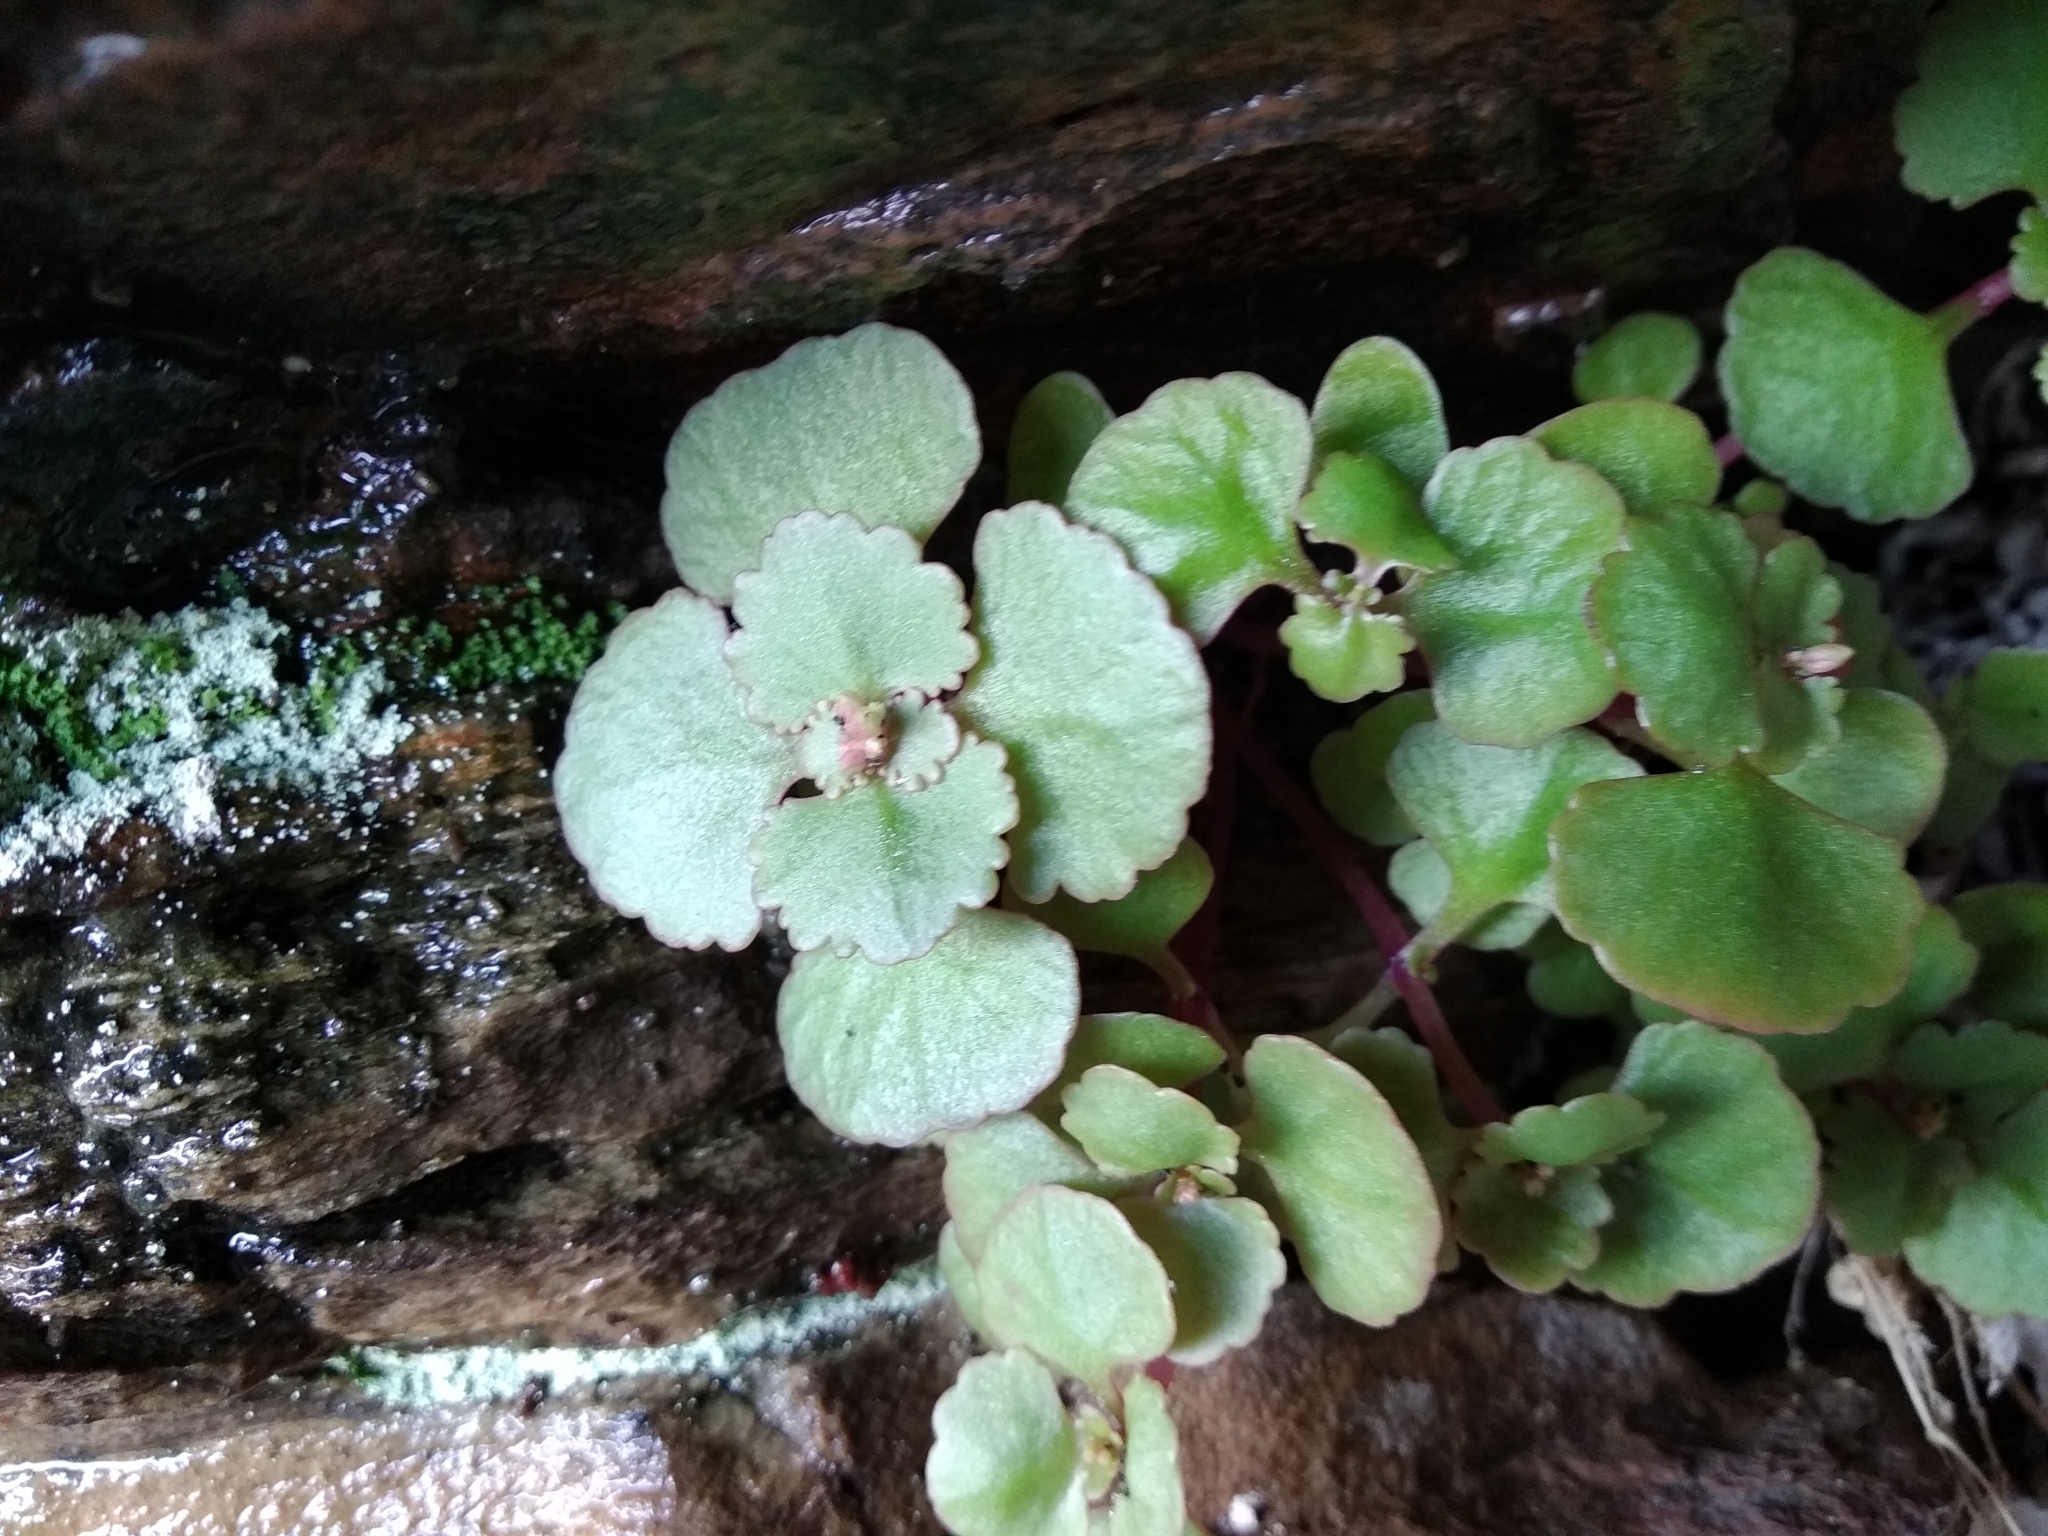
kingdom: Plantae
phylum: Tracheophyta
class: Magnoliopsida
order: Saxifragales
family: Crassulaceae
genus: Crassula
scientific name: Crassula capensis
